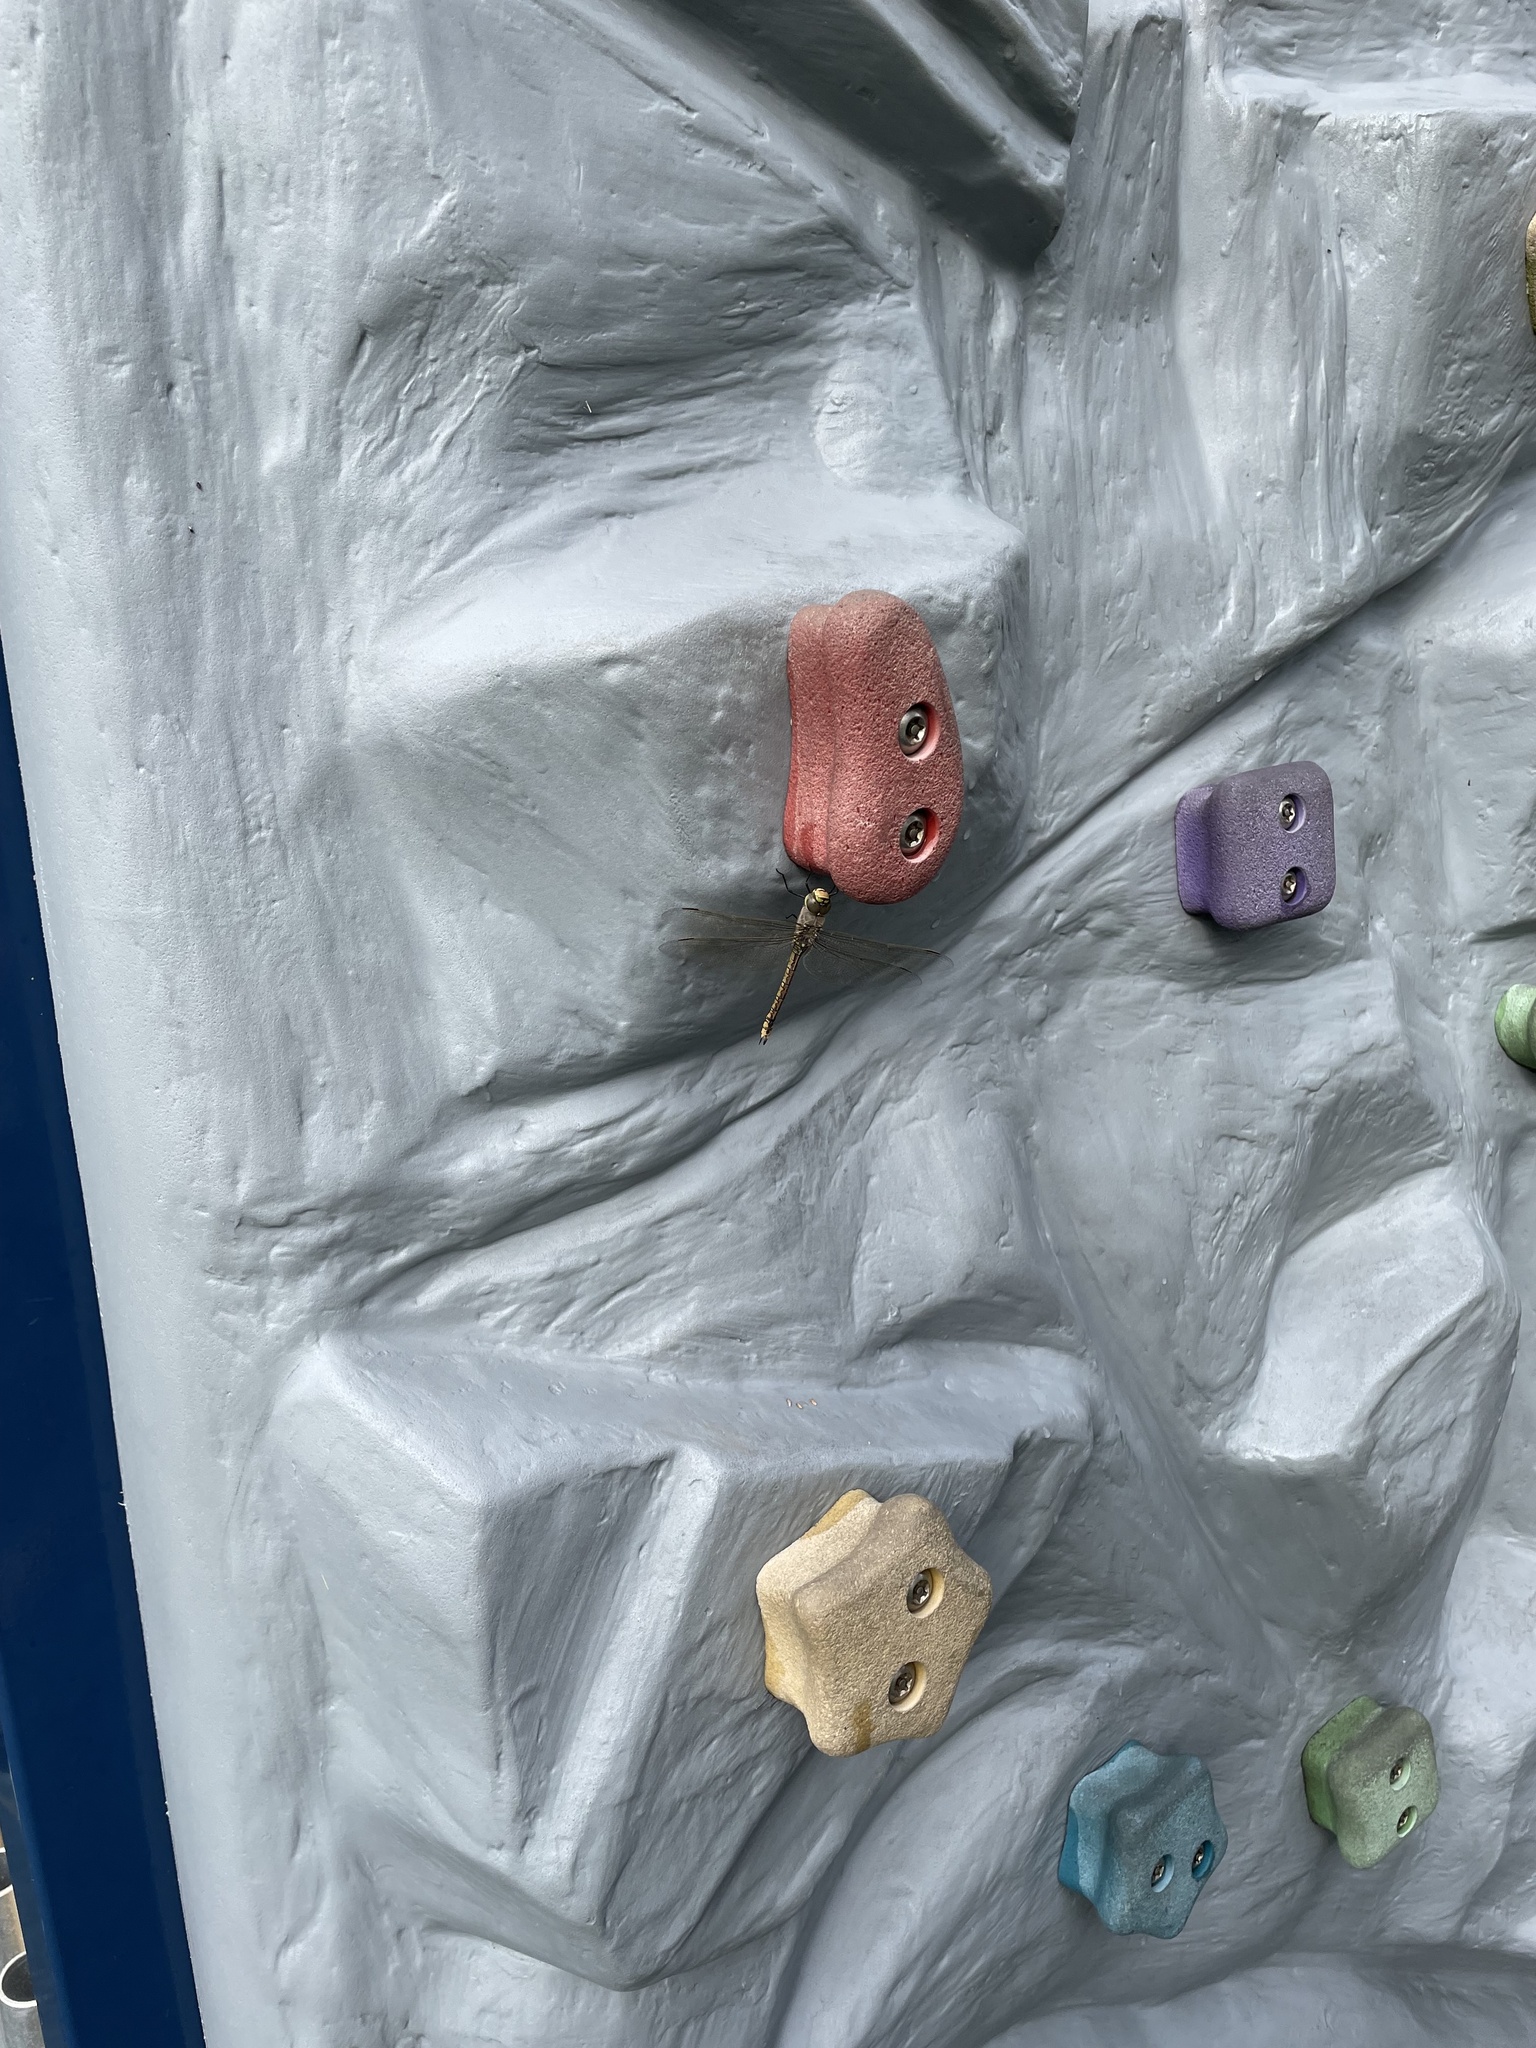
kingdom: Animalia
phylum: Arthropoda
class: Insecta
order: Odonata
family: Aeshnidae
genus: Anax
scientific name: Anax papuensis
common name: Australian emperor
